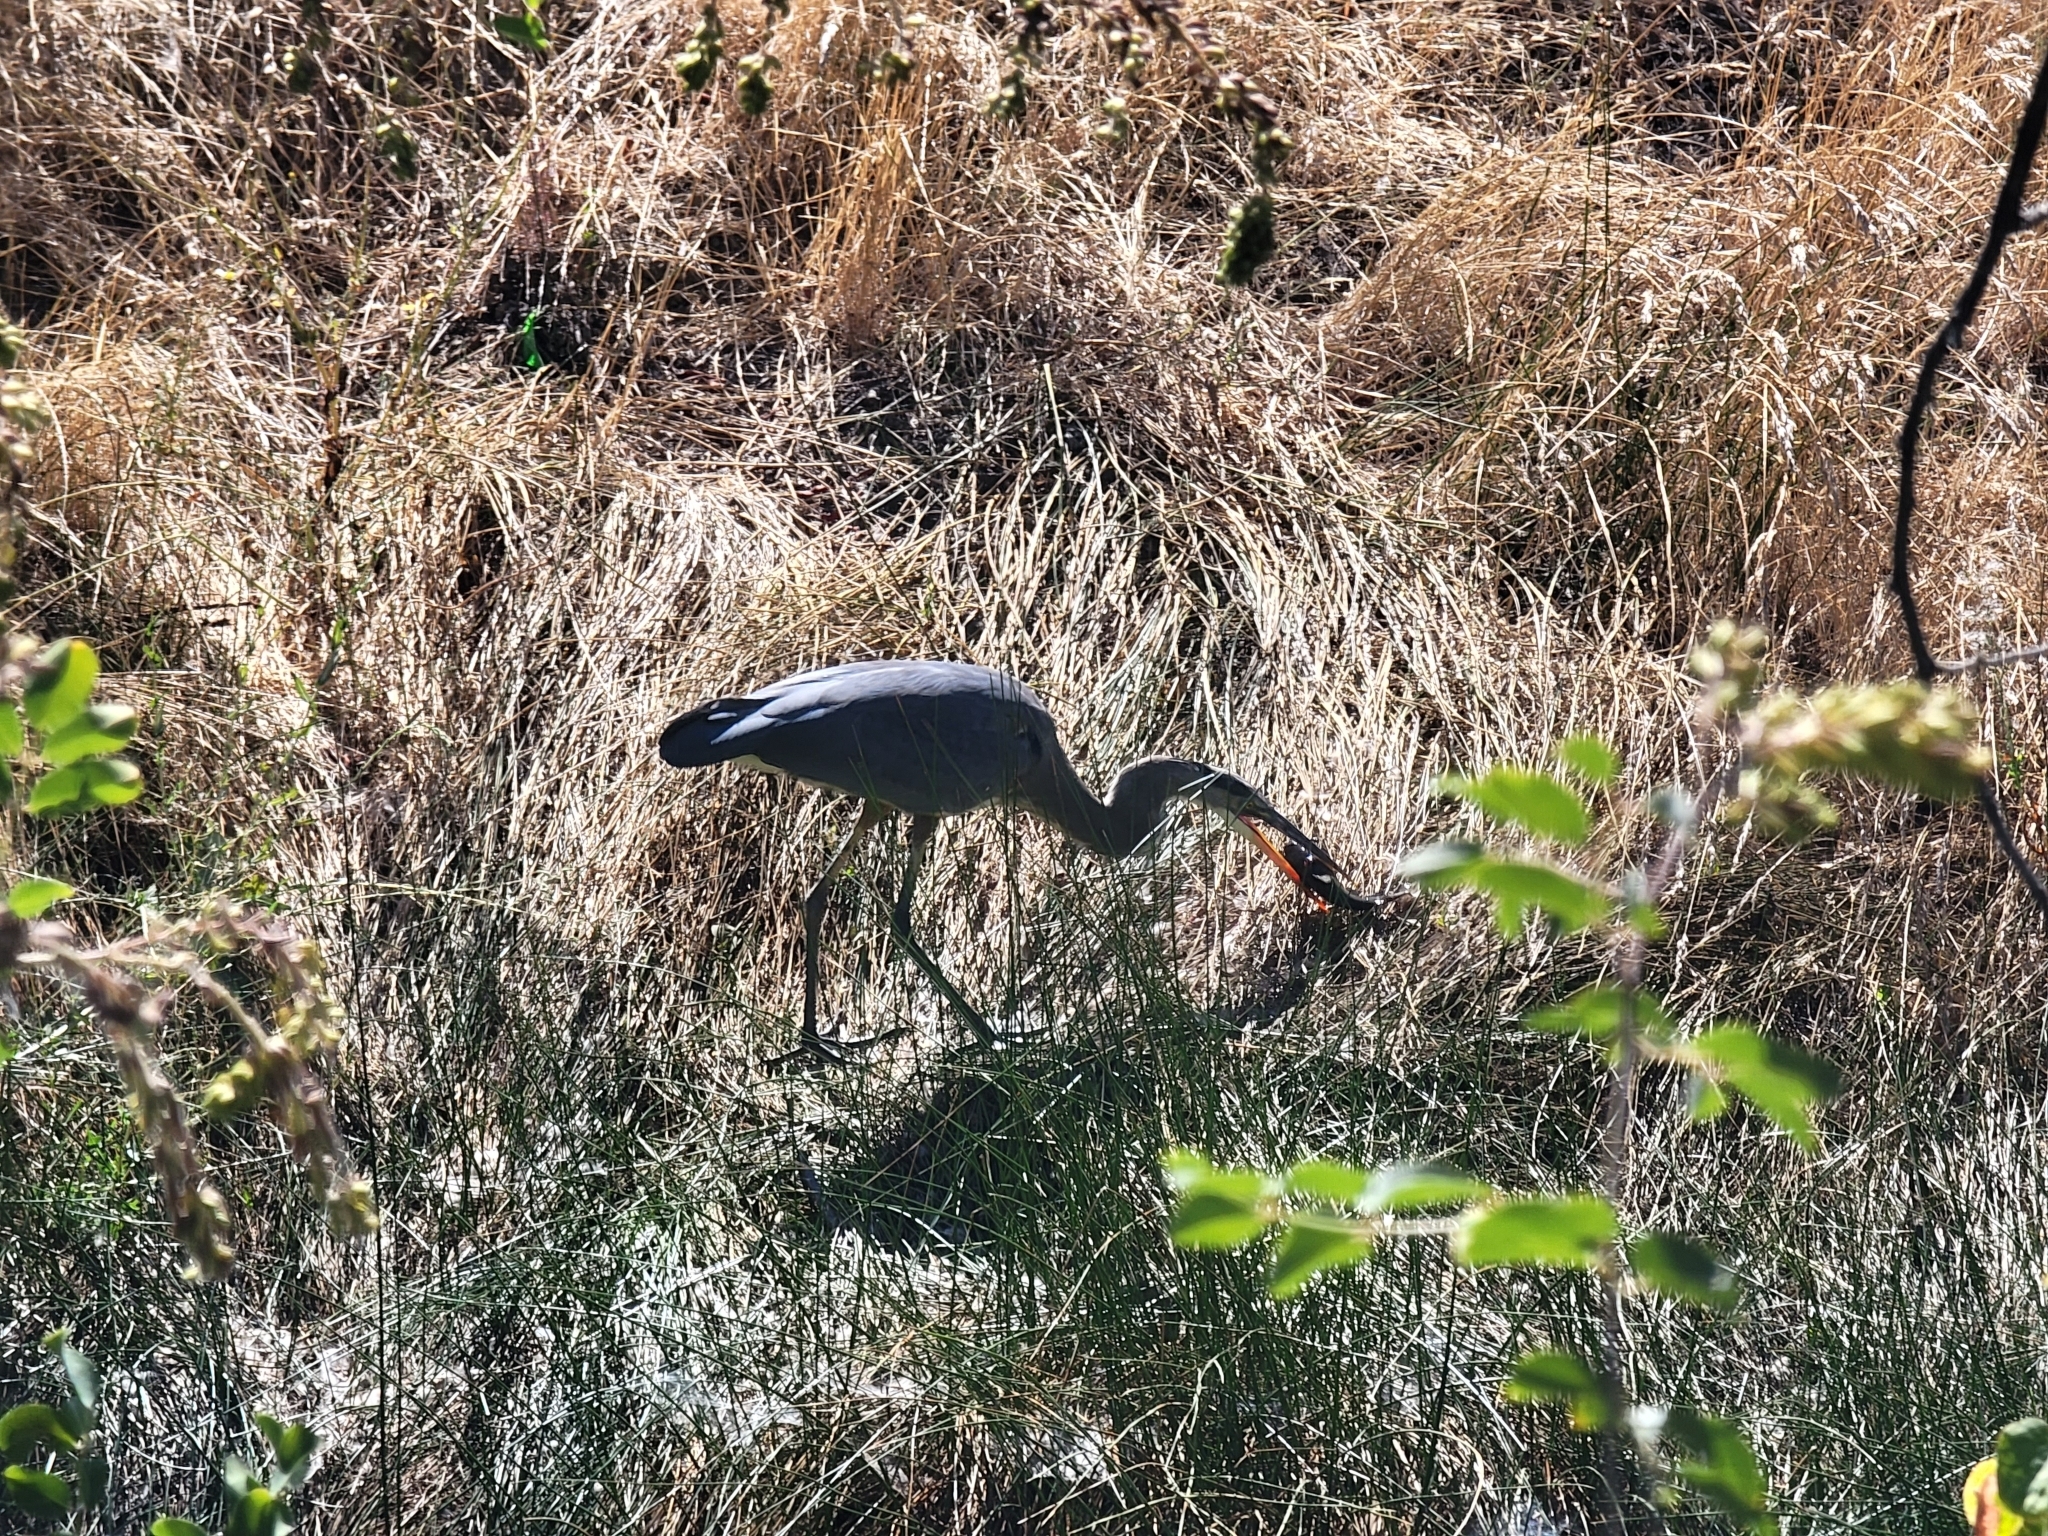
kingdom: Animalia
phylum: Chordata
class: Aves
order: Pelecaniformes
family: Ardeidae
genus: Ardea
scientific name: Ardea herodias
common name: Great blue heron
